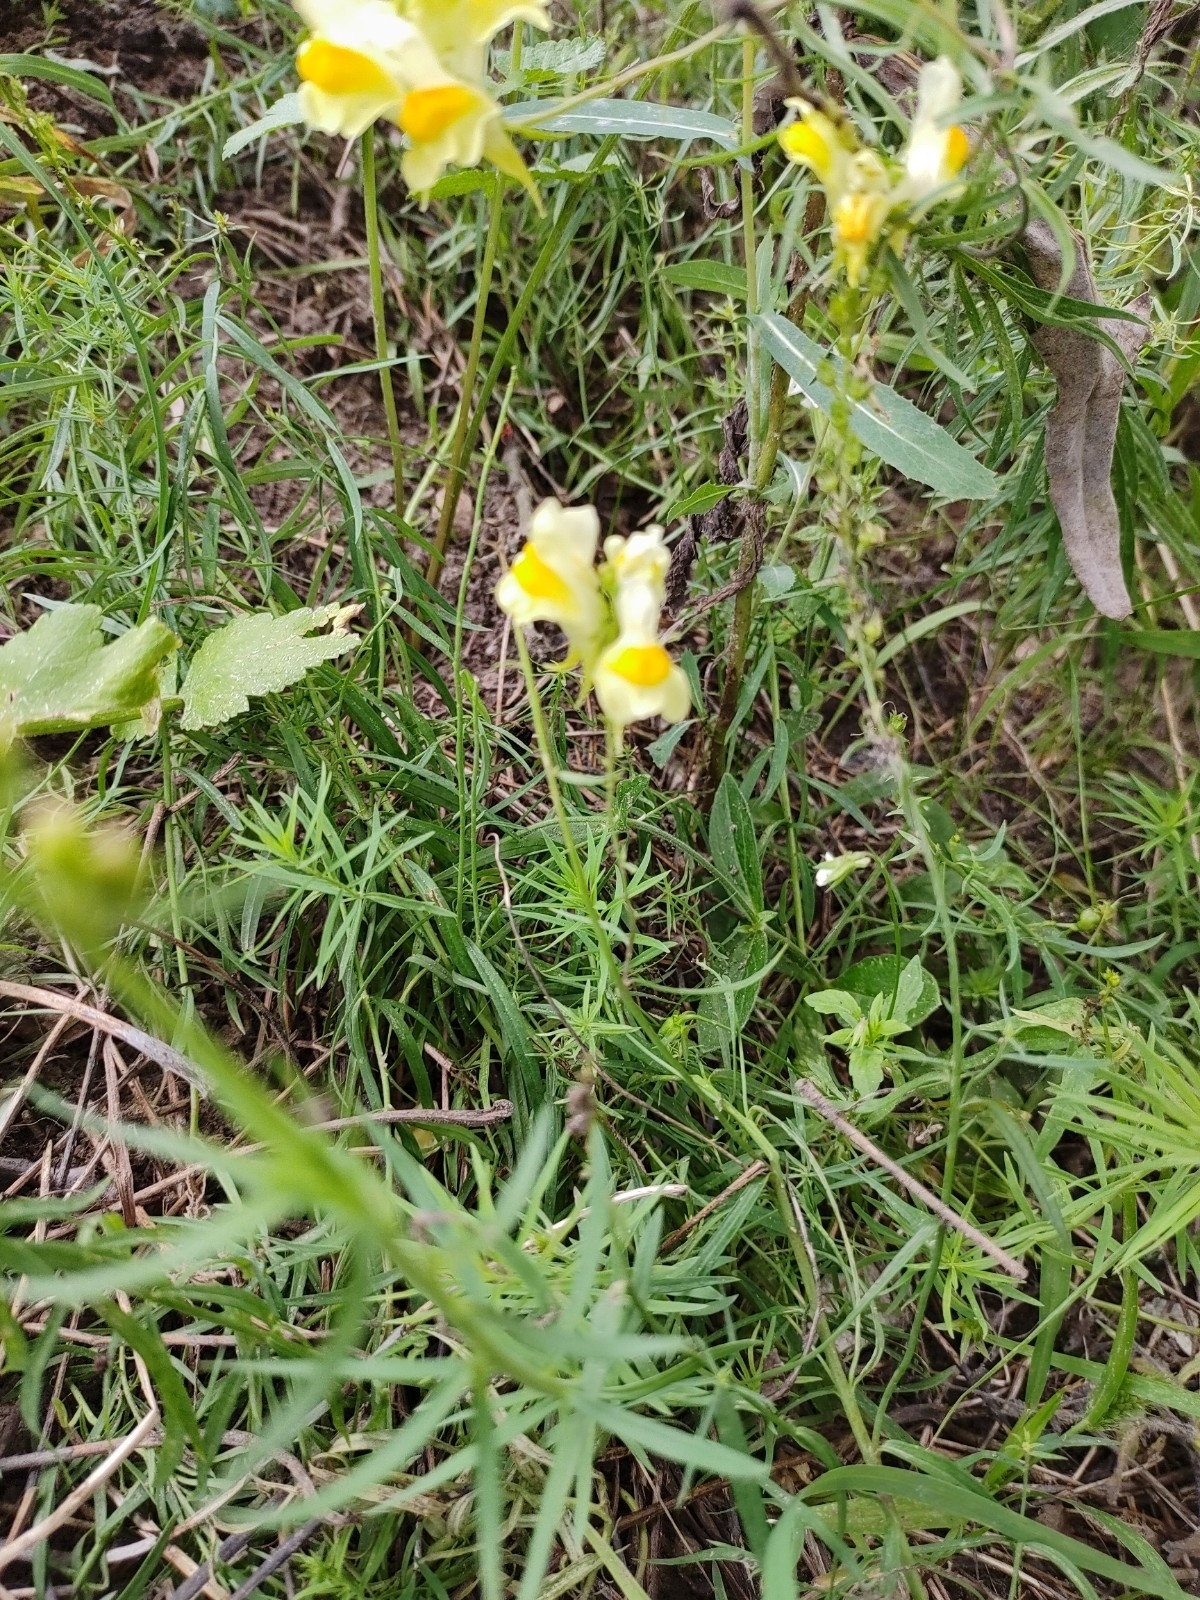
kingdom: Plantae
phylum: Tracheophyta
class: Magnoliopsida
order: Lamiales
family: Plantaginaceae
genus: Linaria
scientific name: Linaria vulgaris
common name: Butter and eggs
